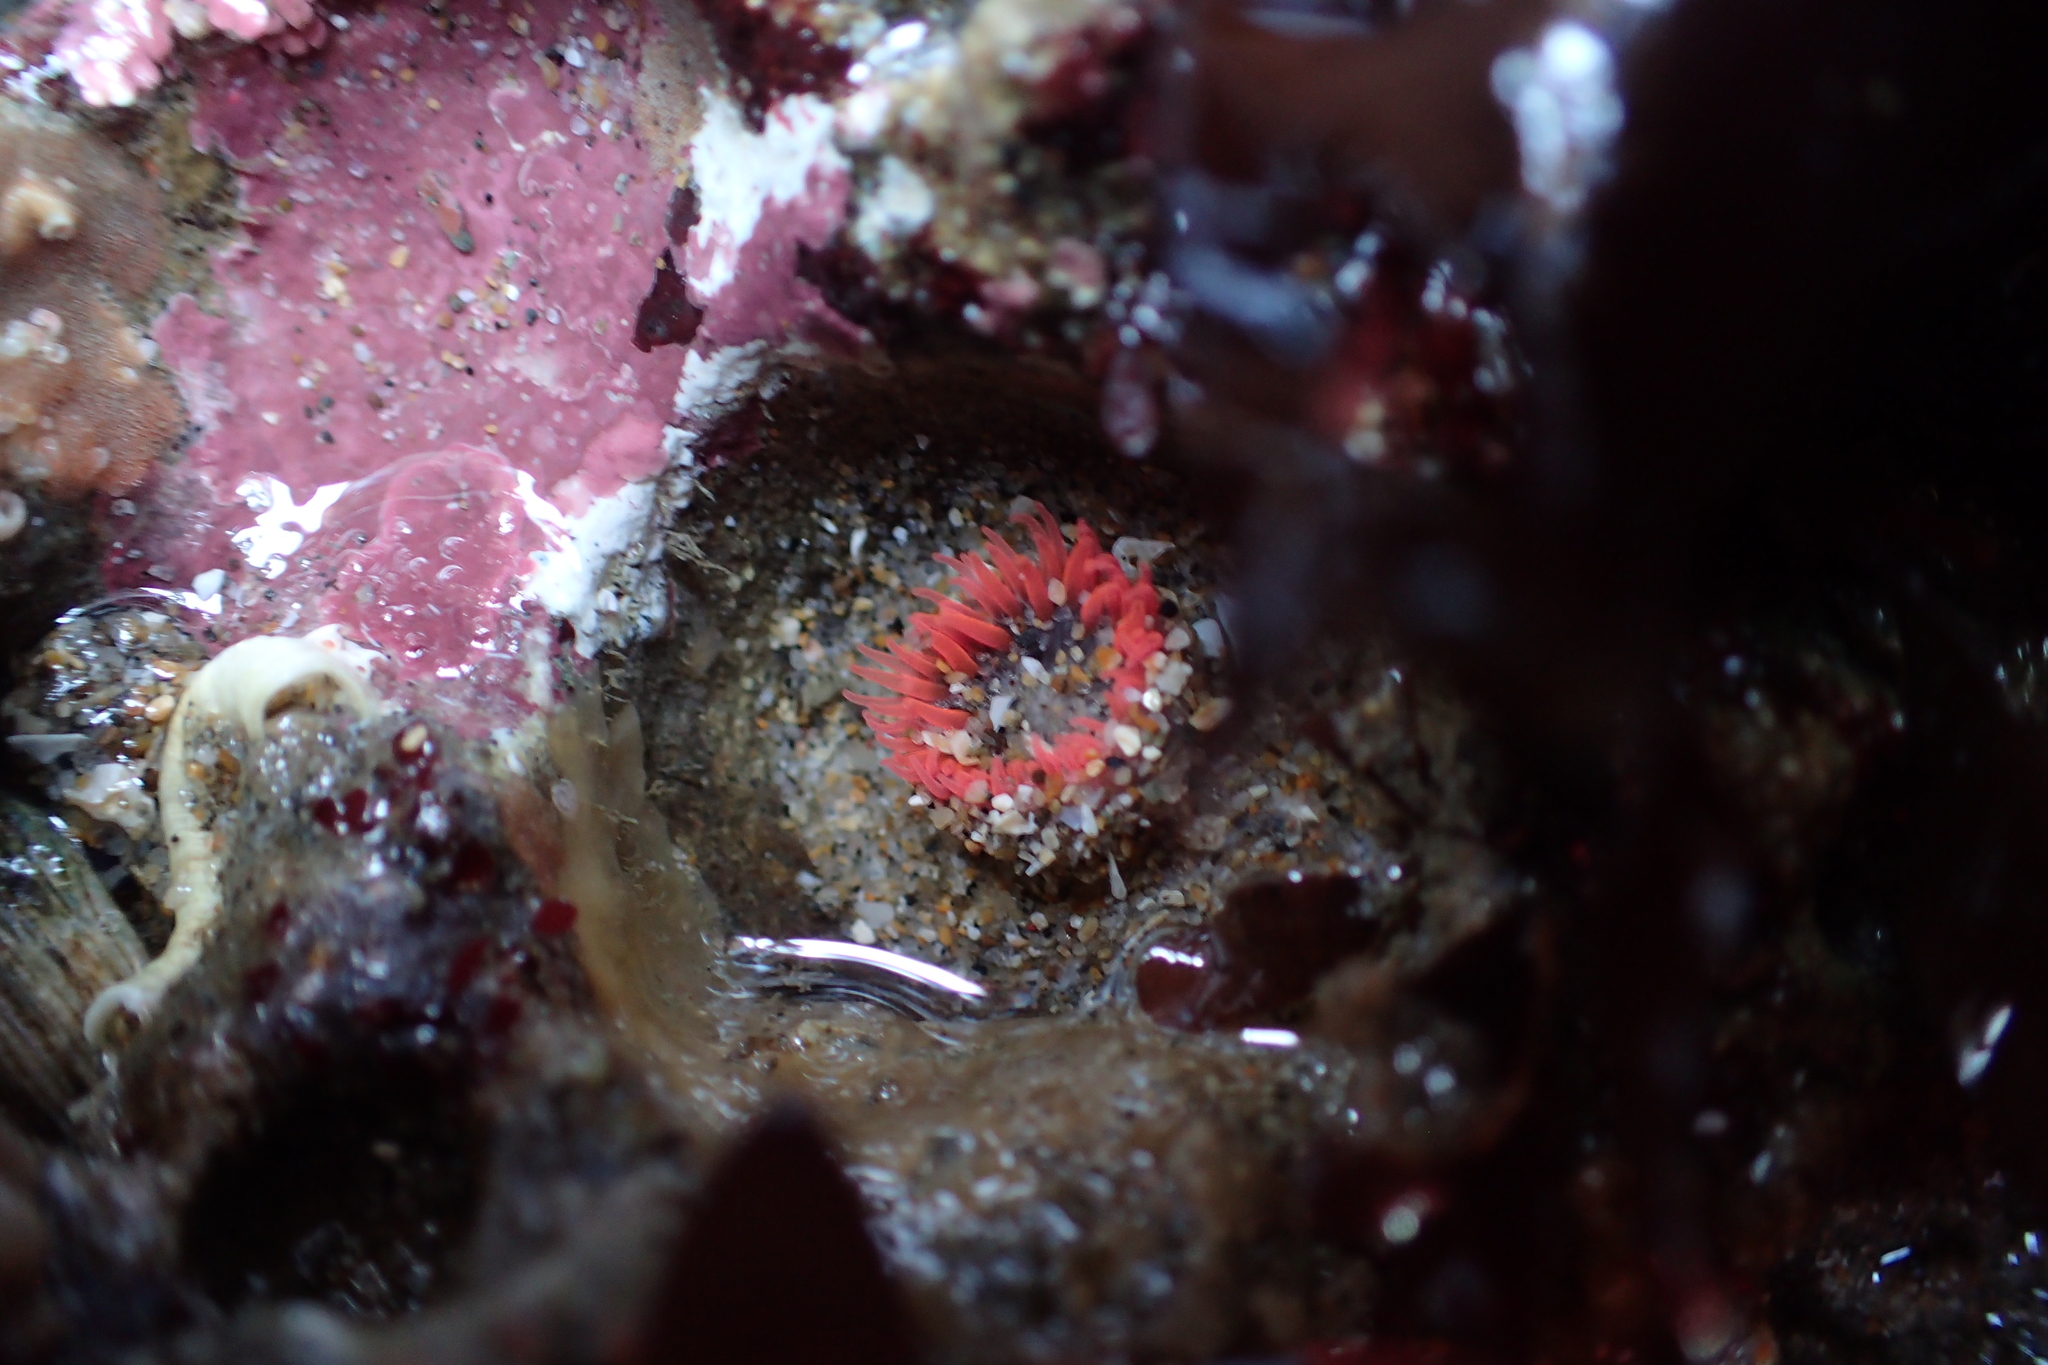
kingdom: Animalia
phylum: Cnidaria
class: Anthozoa
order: Actiniaria
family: Actiniidae
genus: Anthopleura
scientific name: Anthopleura artemisia
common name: Buried sea anemone
